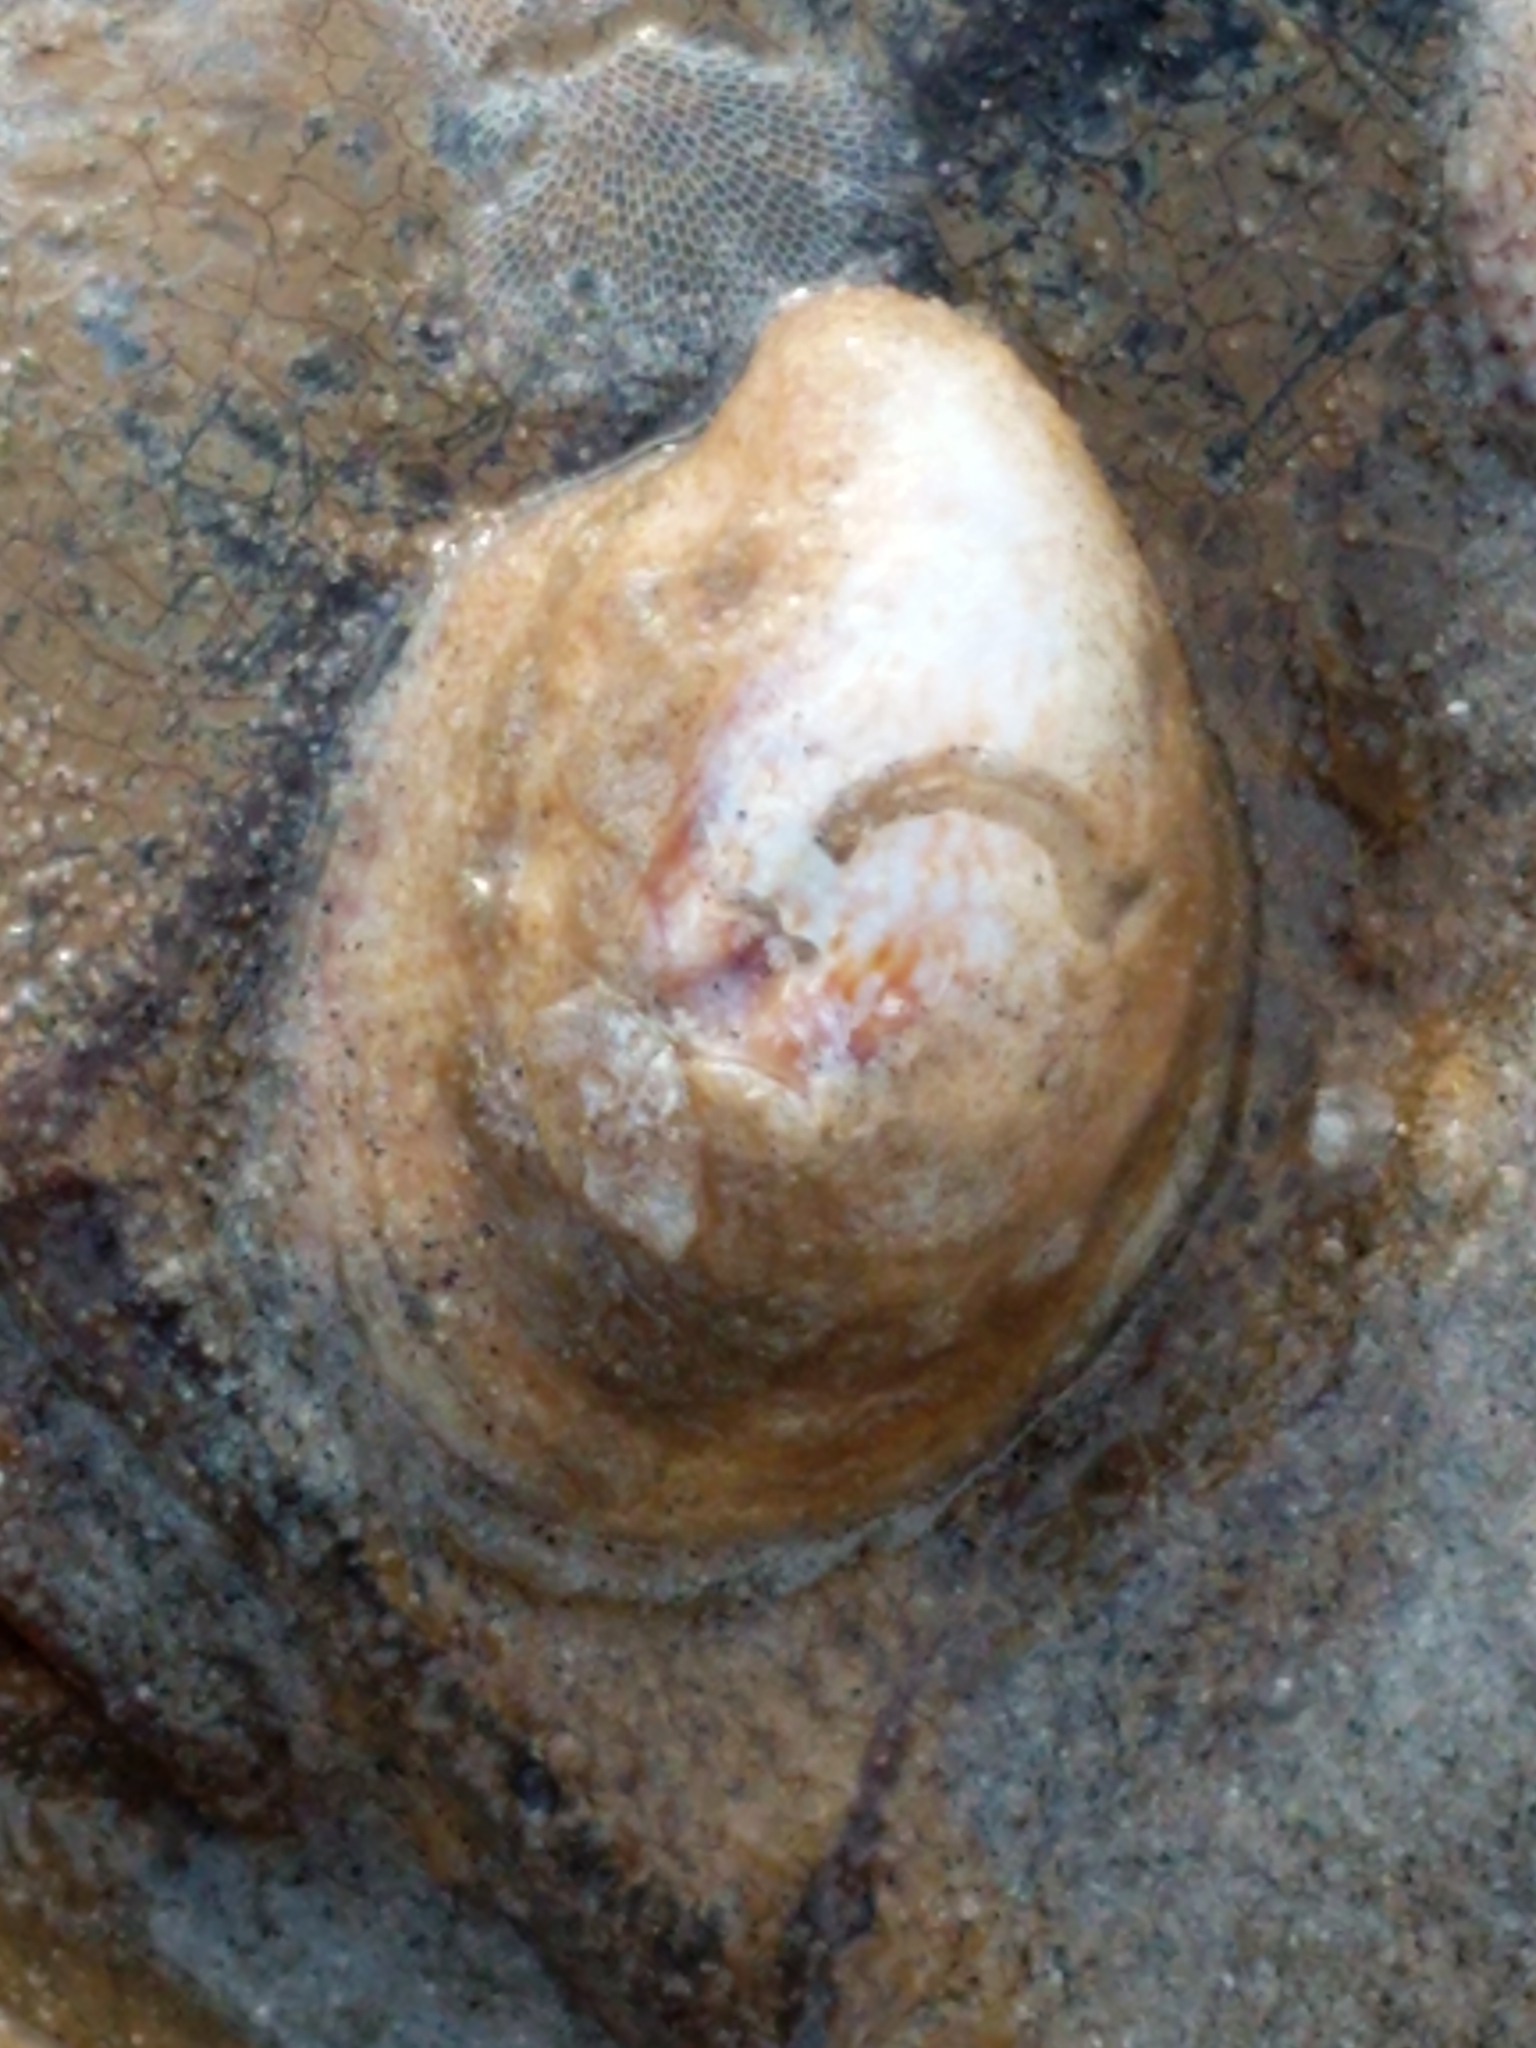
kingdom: Animalia
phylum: Mollusca
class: Gastropoda
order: Littorinimorpha
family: Calyptraeidae
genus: Crepidula
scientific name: Crepidula fornicata
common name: Slipper limpet
